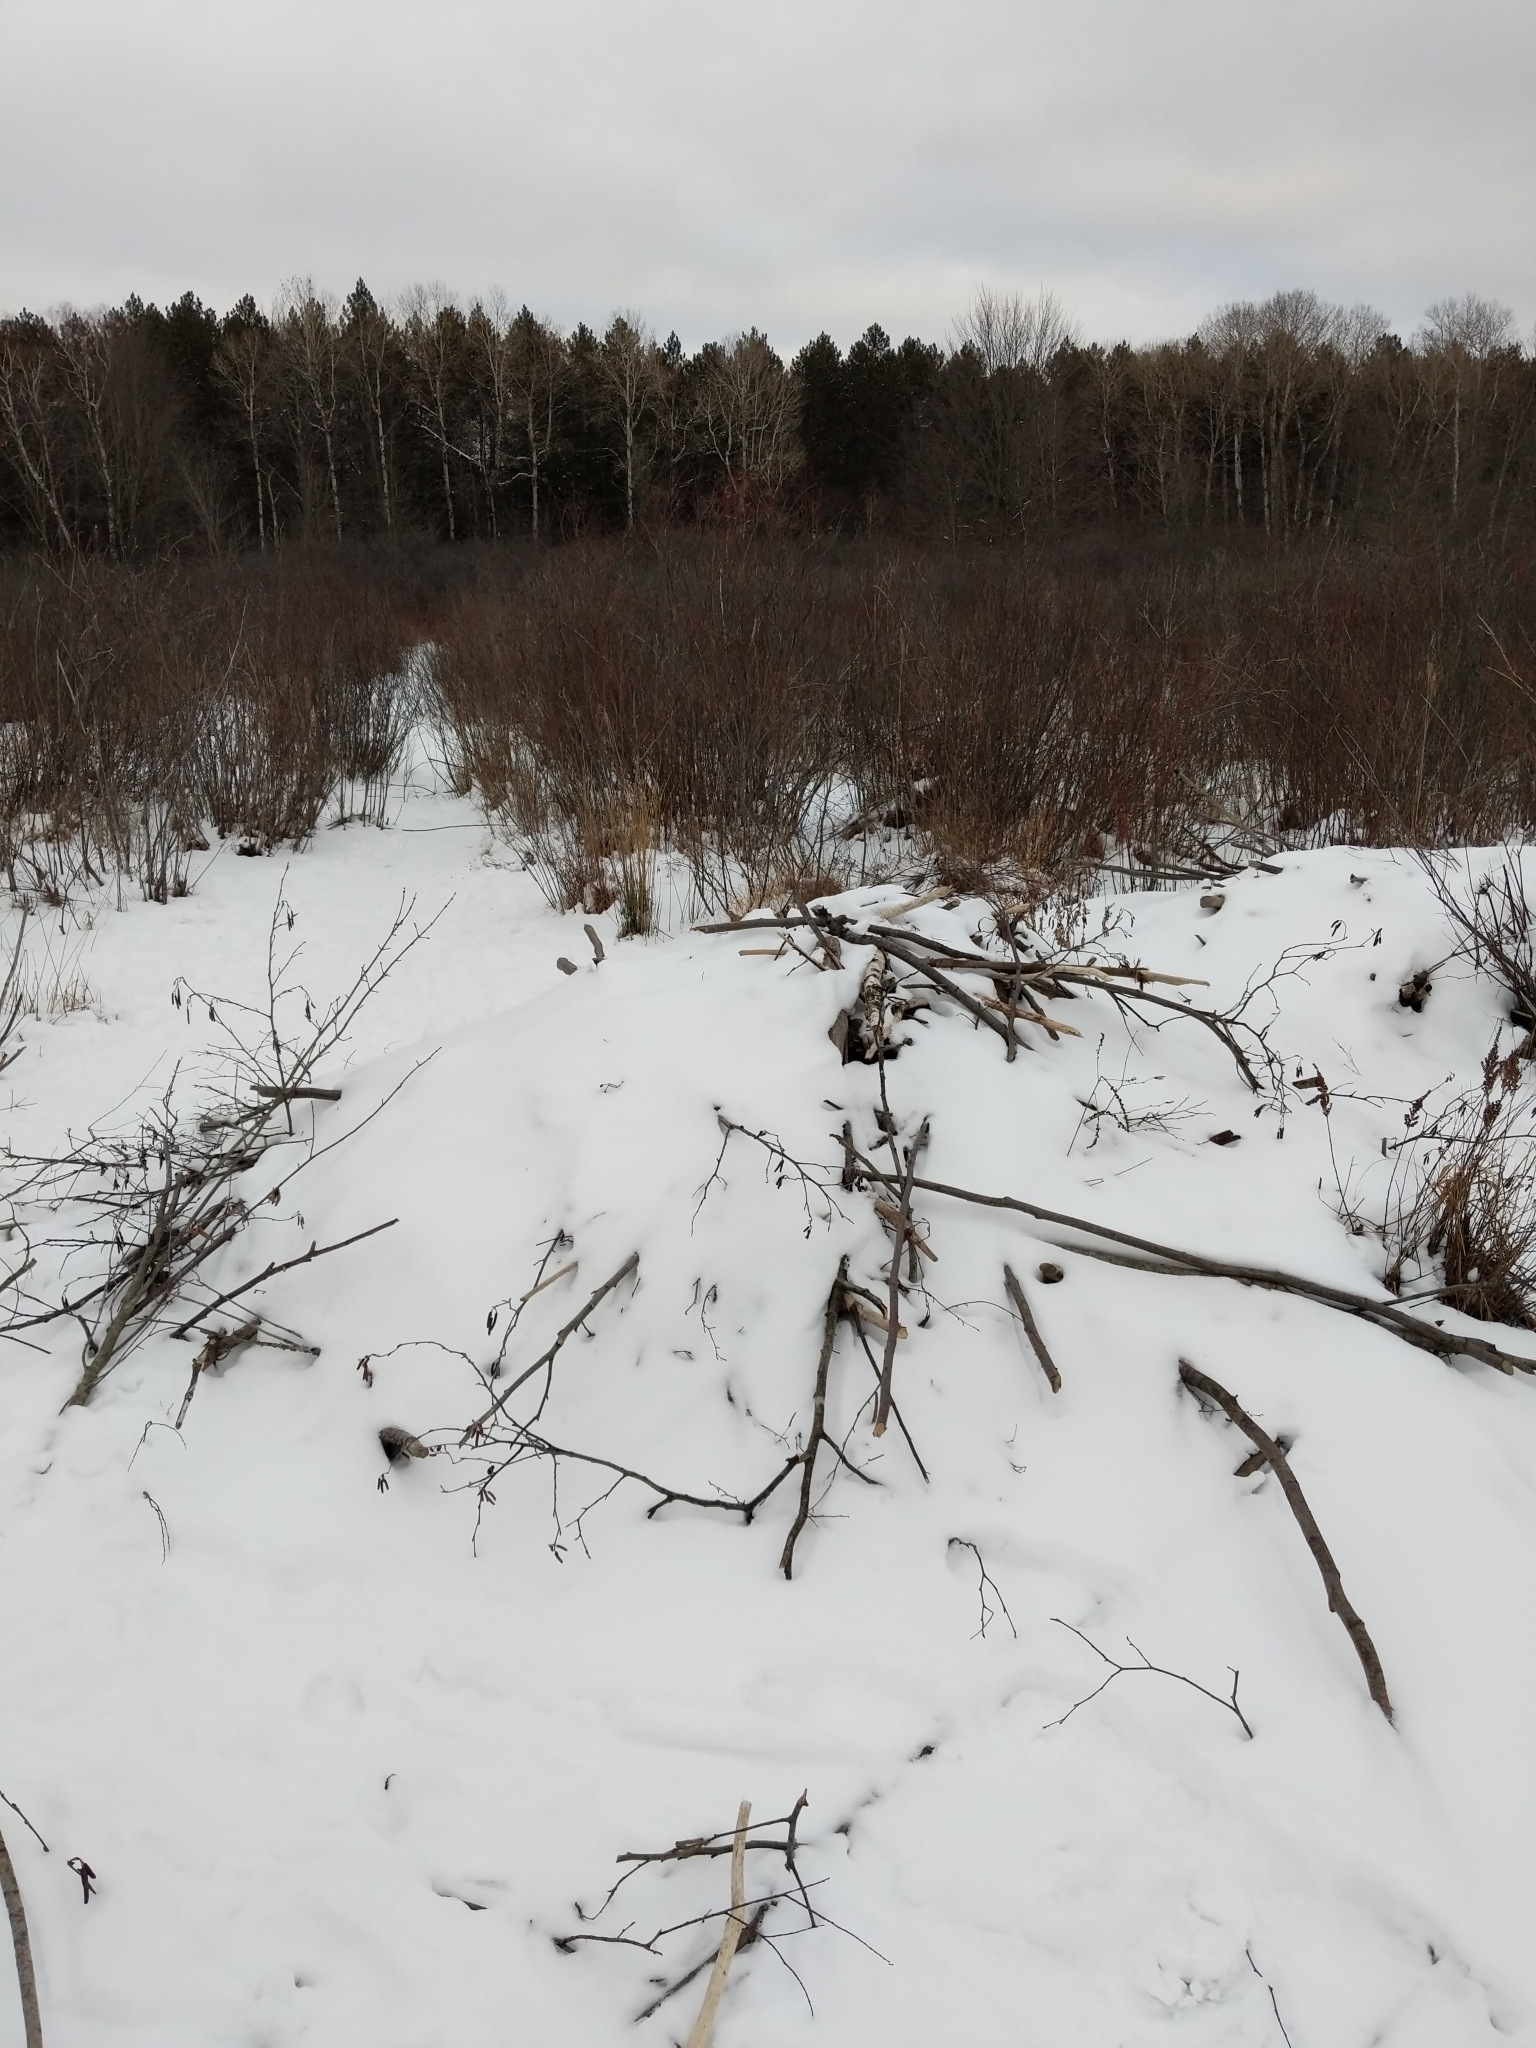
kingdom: Animalia
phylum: Chordata
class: Mammalia
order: Rodentia
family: Castoridae
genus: Castor
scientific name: Castor canadensis
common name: American beaver
